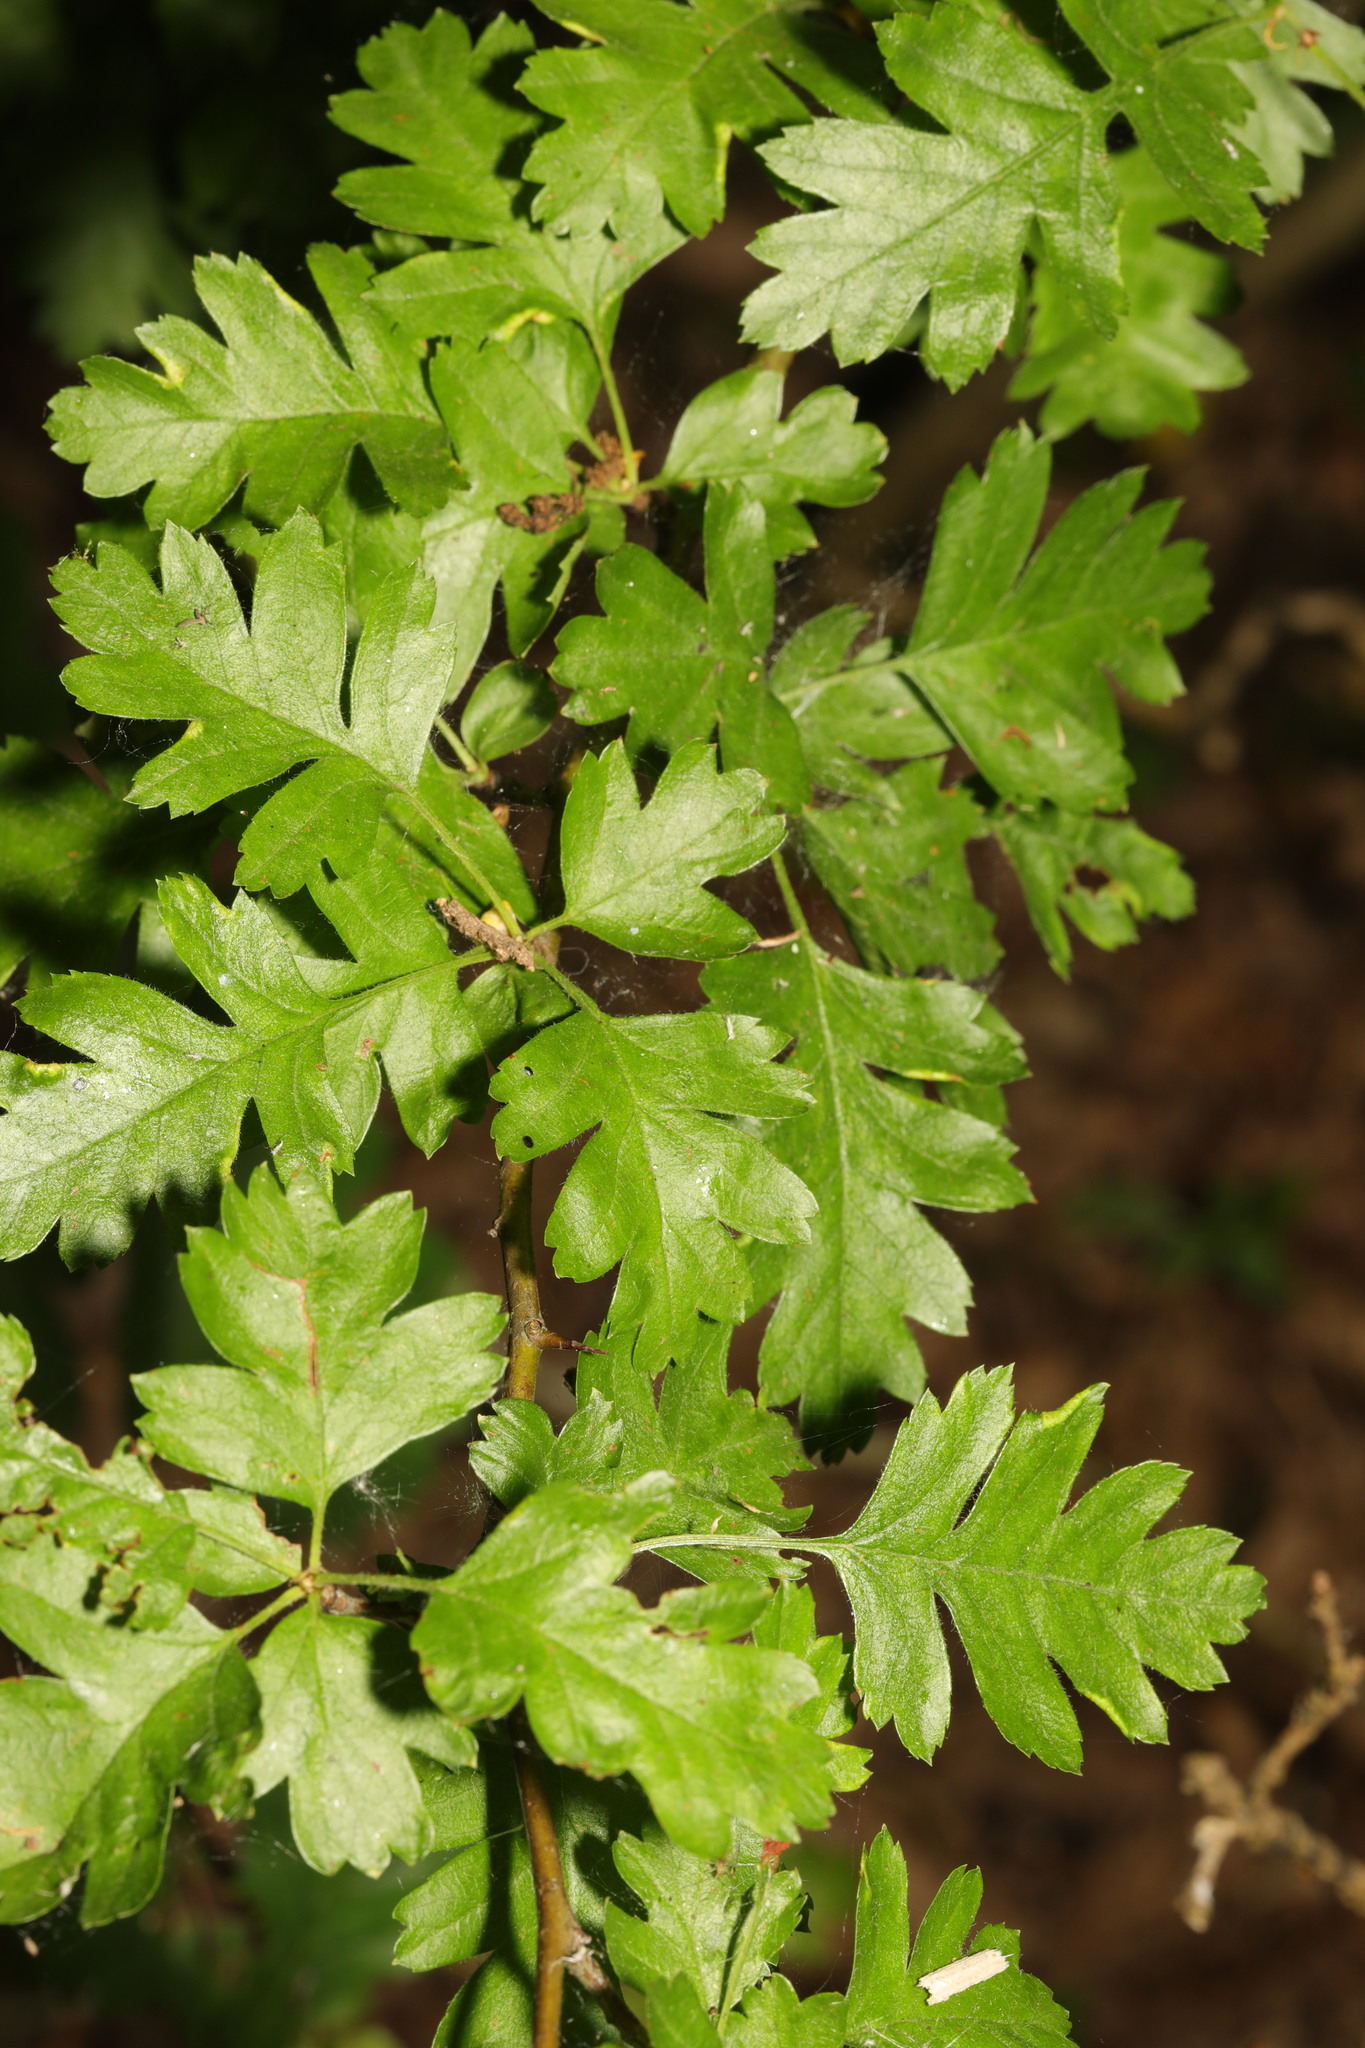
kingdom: Plantae
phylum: Tracheophyta
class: Magnoliopsida
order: Rosales
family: Rosaceae
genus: Crataegus
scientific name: Crataegus monogyna
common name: Hawthorn
